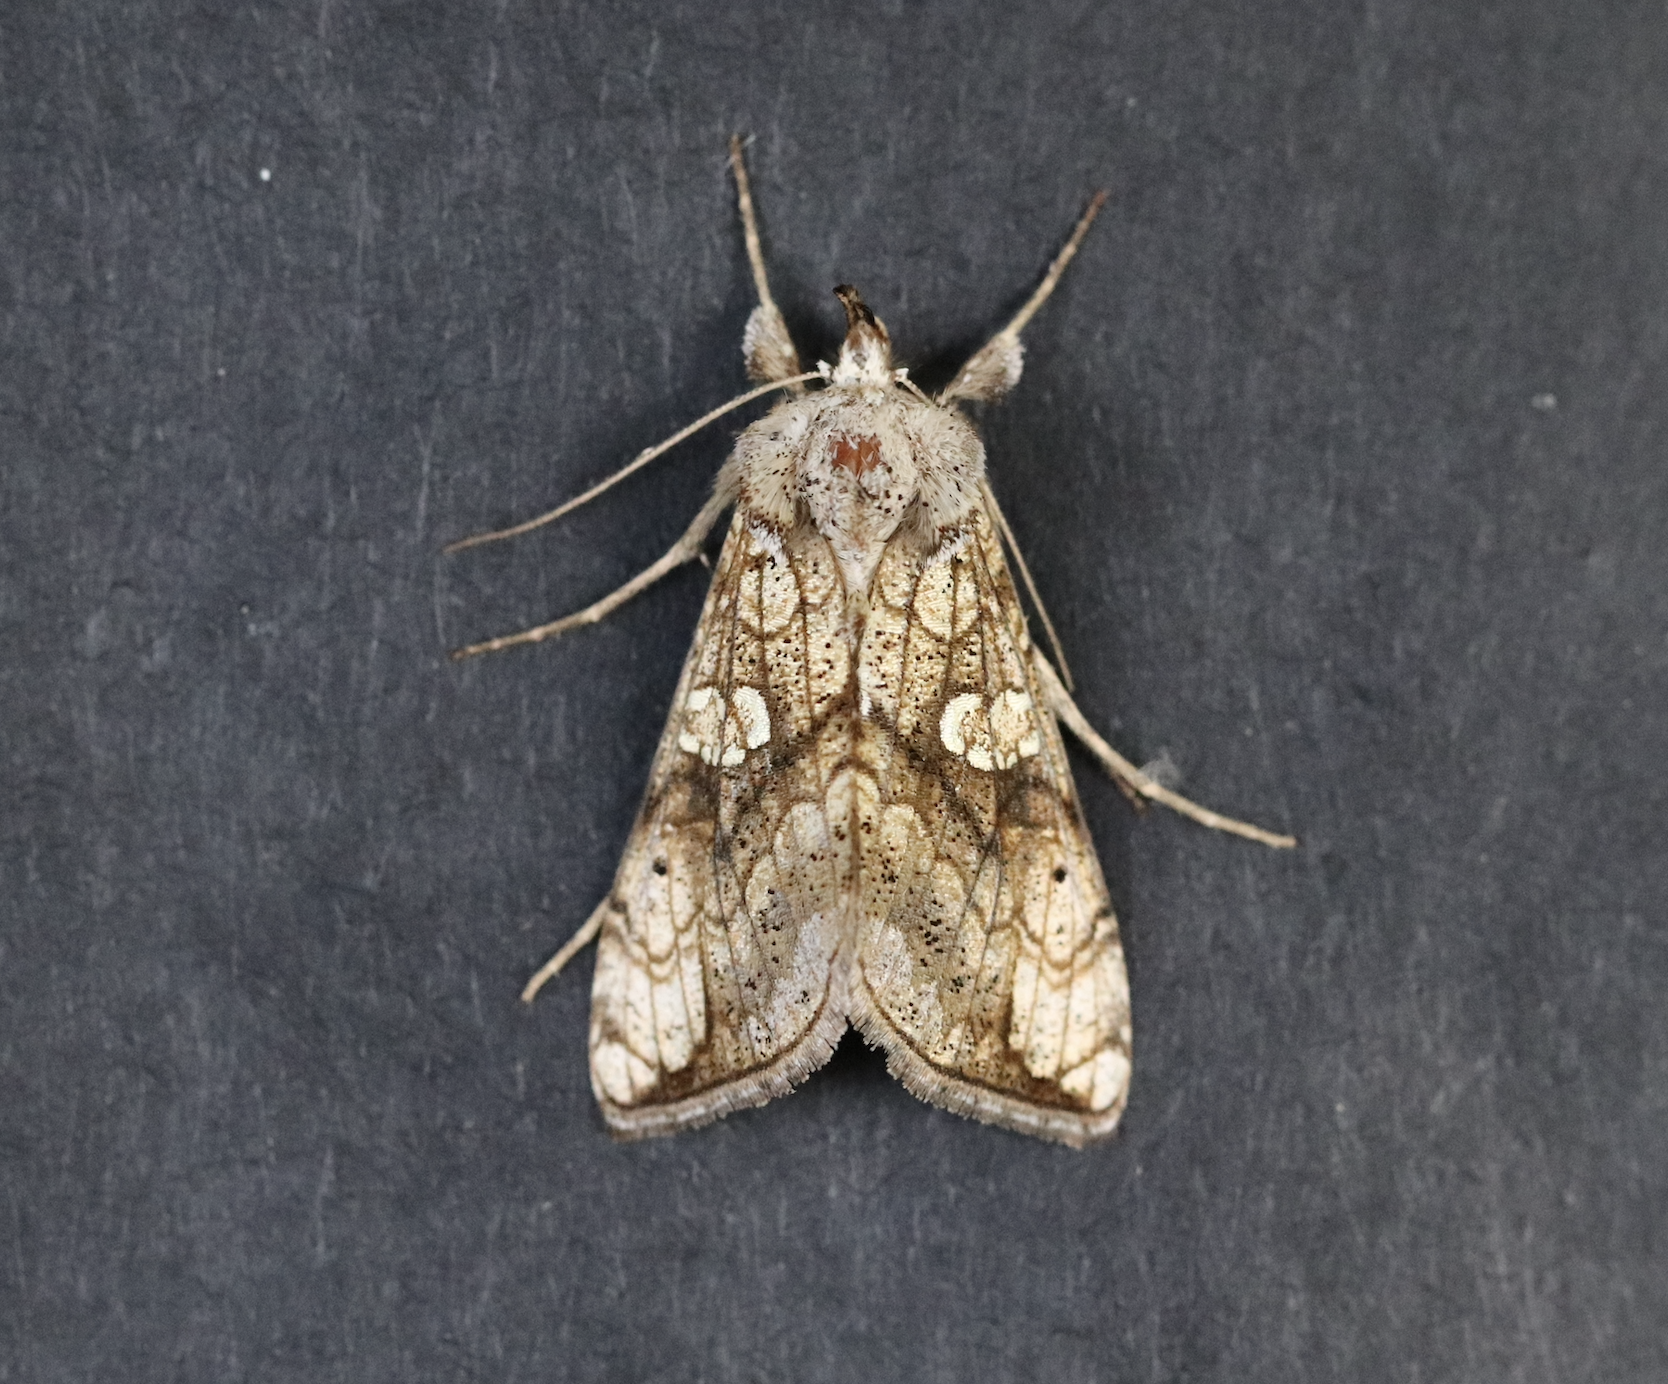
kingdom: Animalia
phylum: Arthropoda
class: Insecta
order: Lepidoptera
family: Noctuidae
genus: Polychrysia
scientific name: Polychrysia esmeralda
